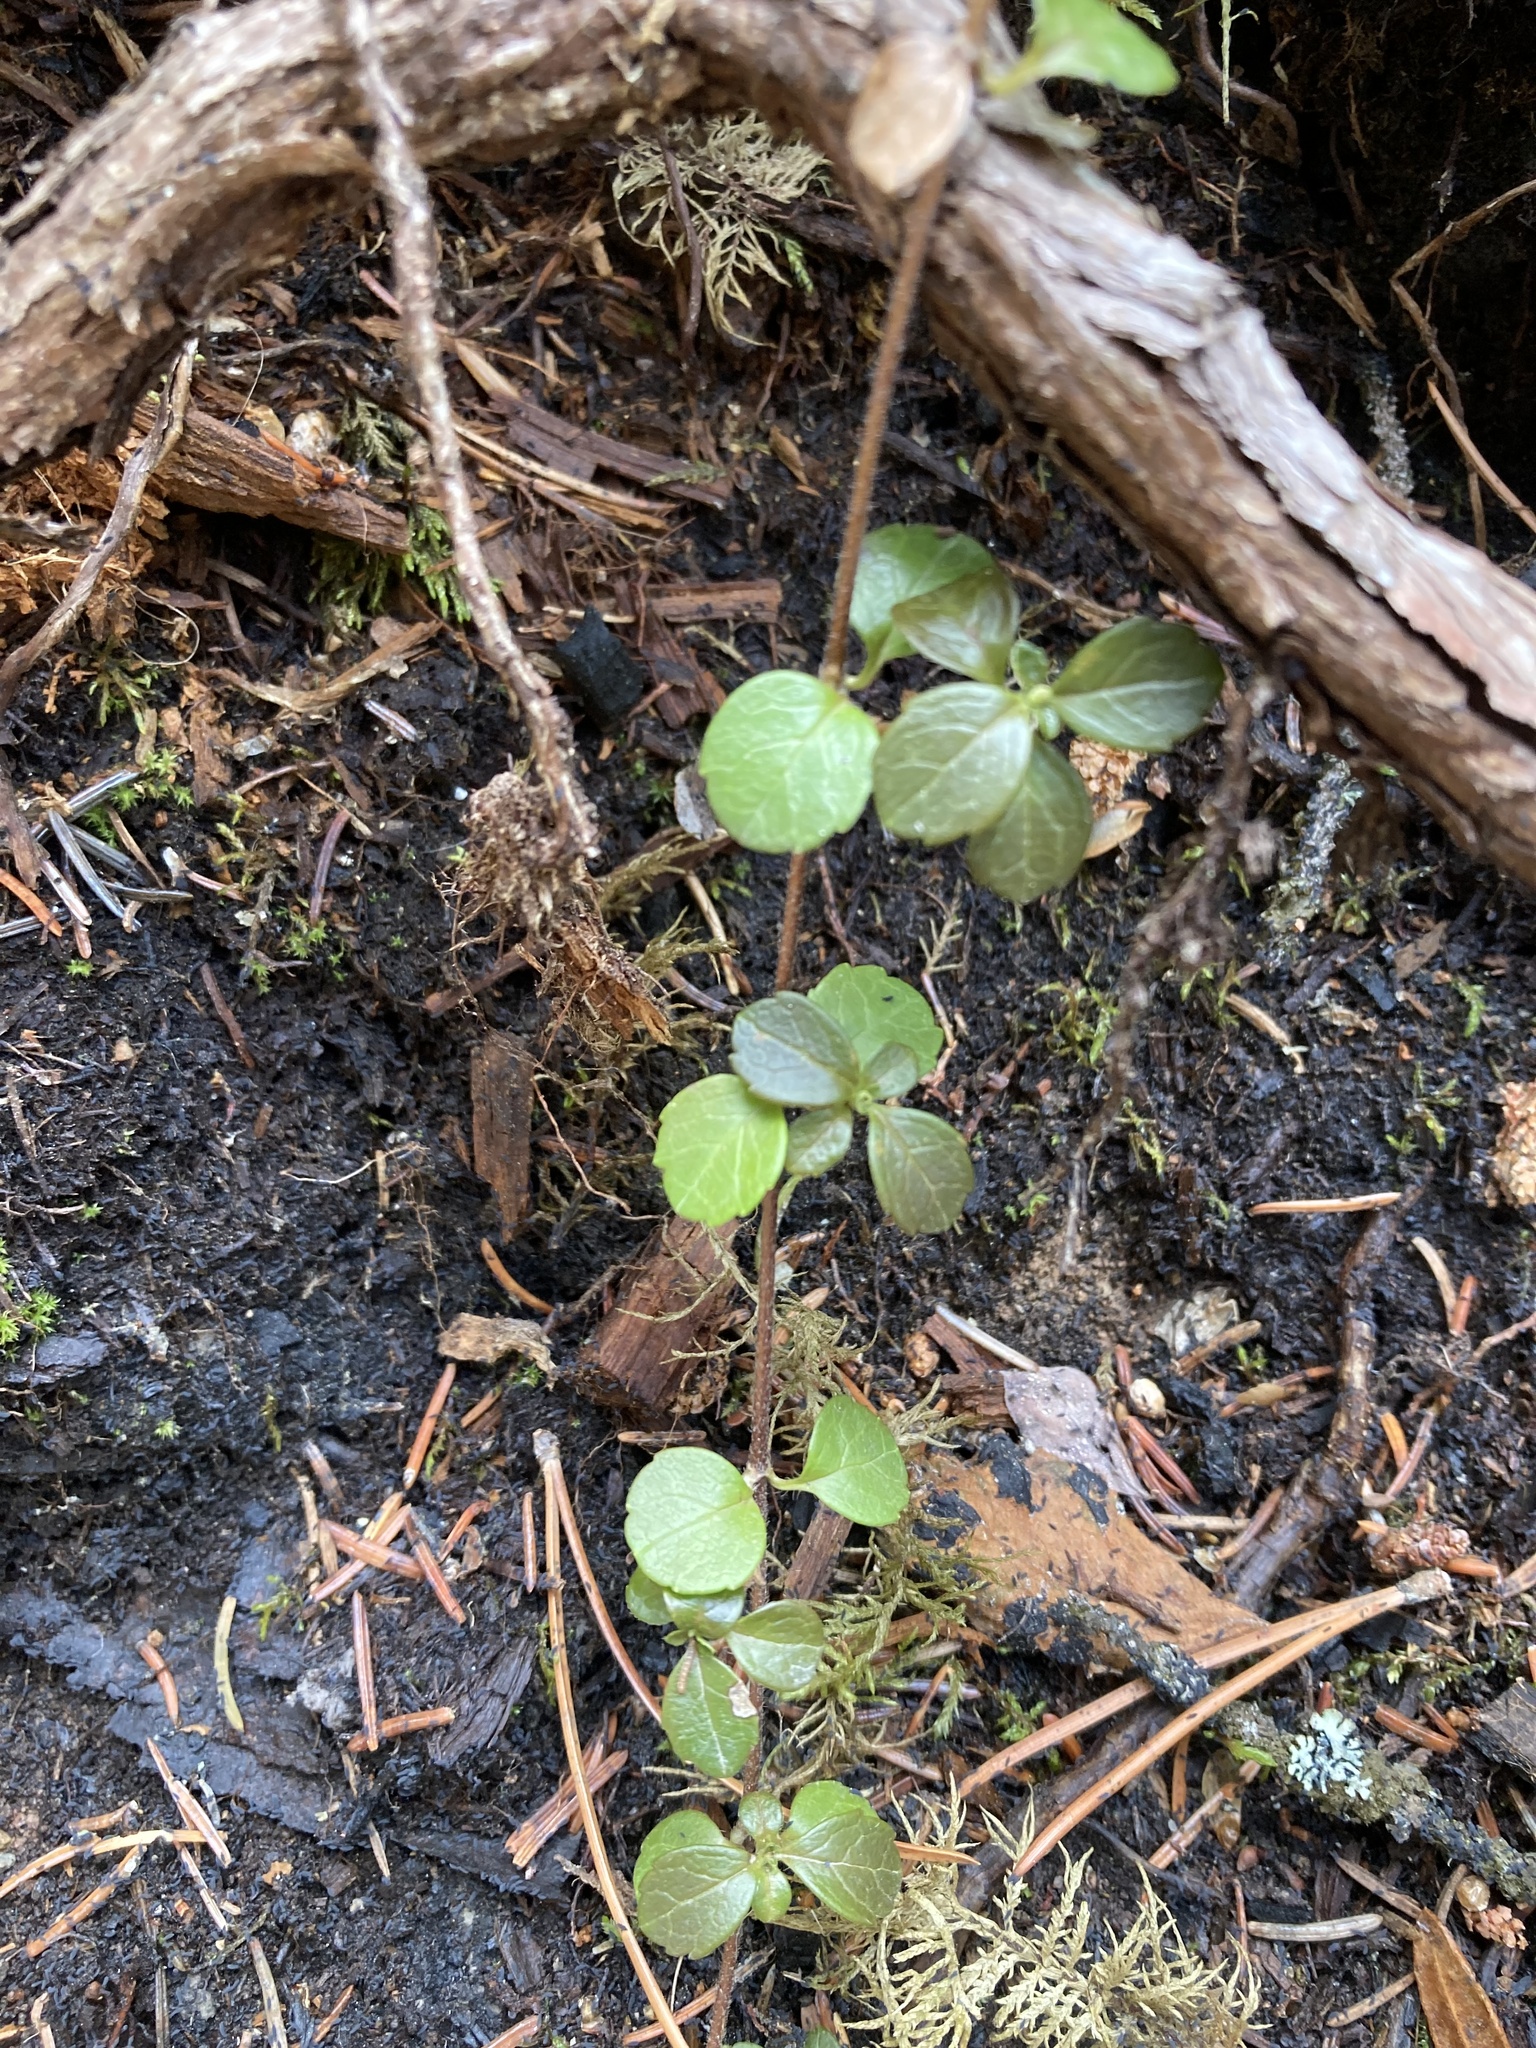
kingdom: Plantae
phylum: Tracheophyta
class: Magnoliopsida
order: Dipsacales
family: Caprifoliaceae
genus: Linnaea
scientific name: Linnaea borealis
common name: Twinflower
